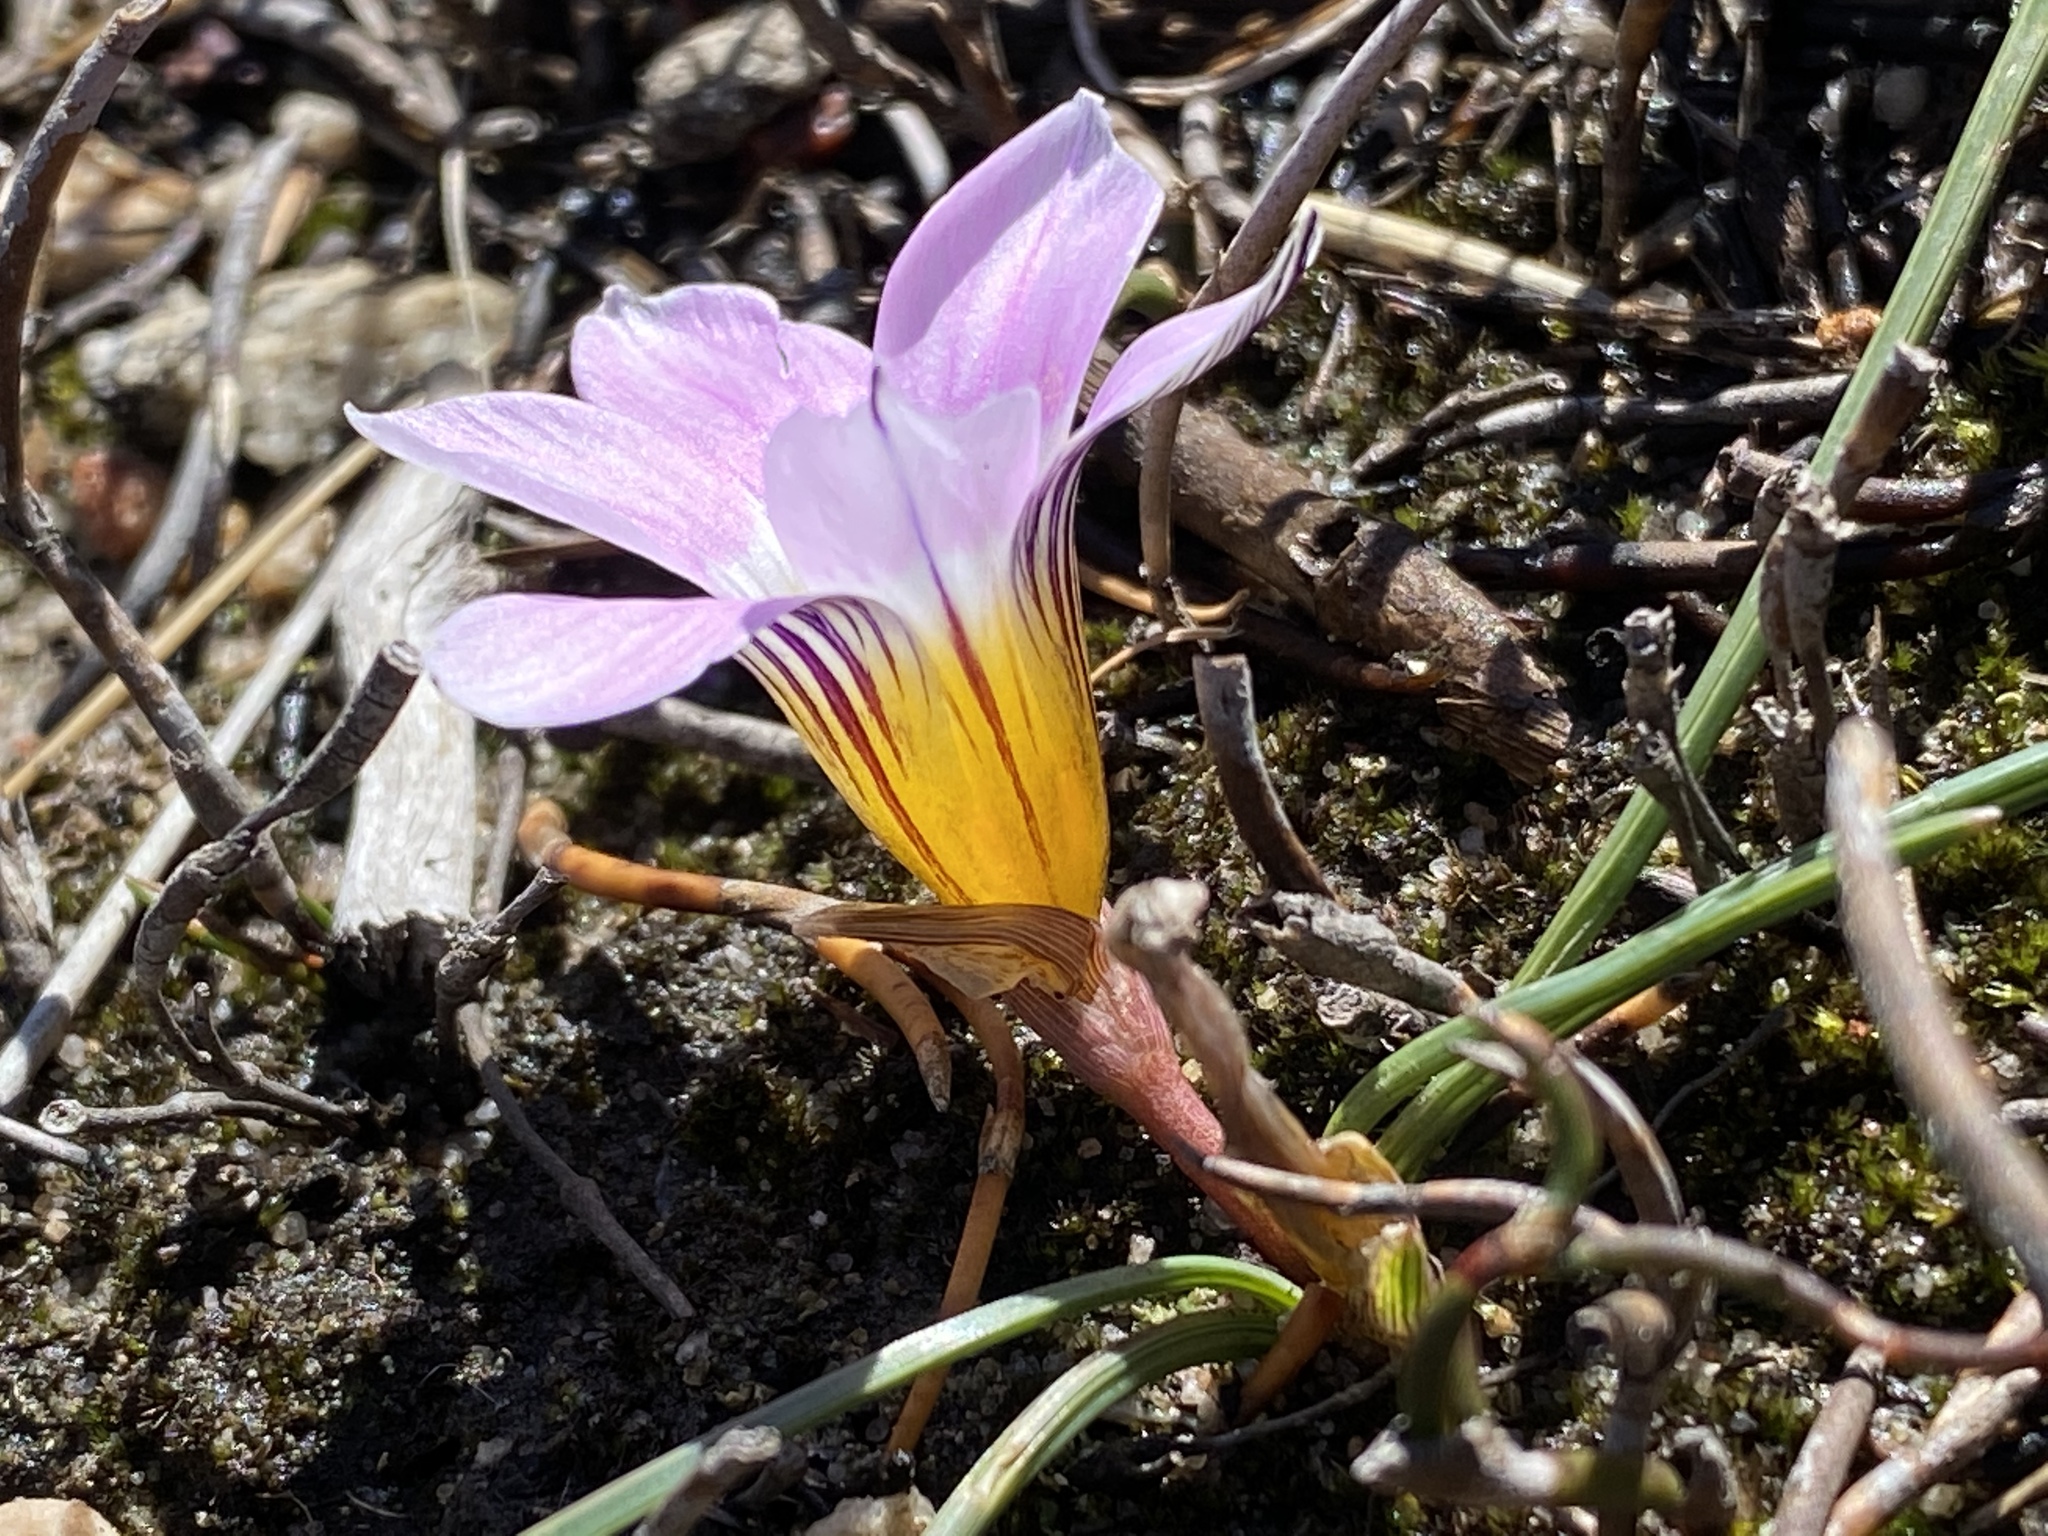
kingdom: Plantae
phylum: Tracheophyta
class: Liliopsida
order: Asparagales
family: Iridaceae
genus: Romulea
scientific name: Romulea fibrosa
